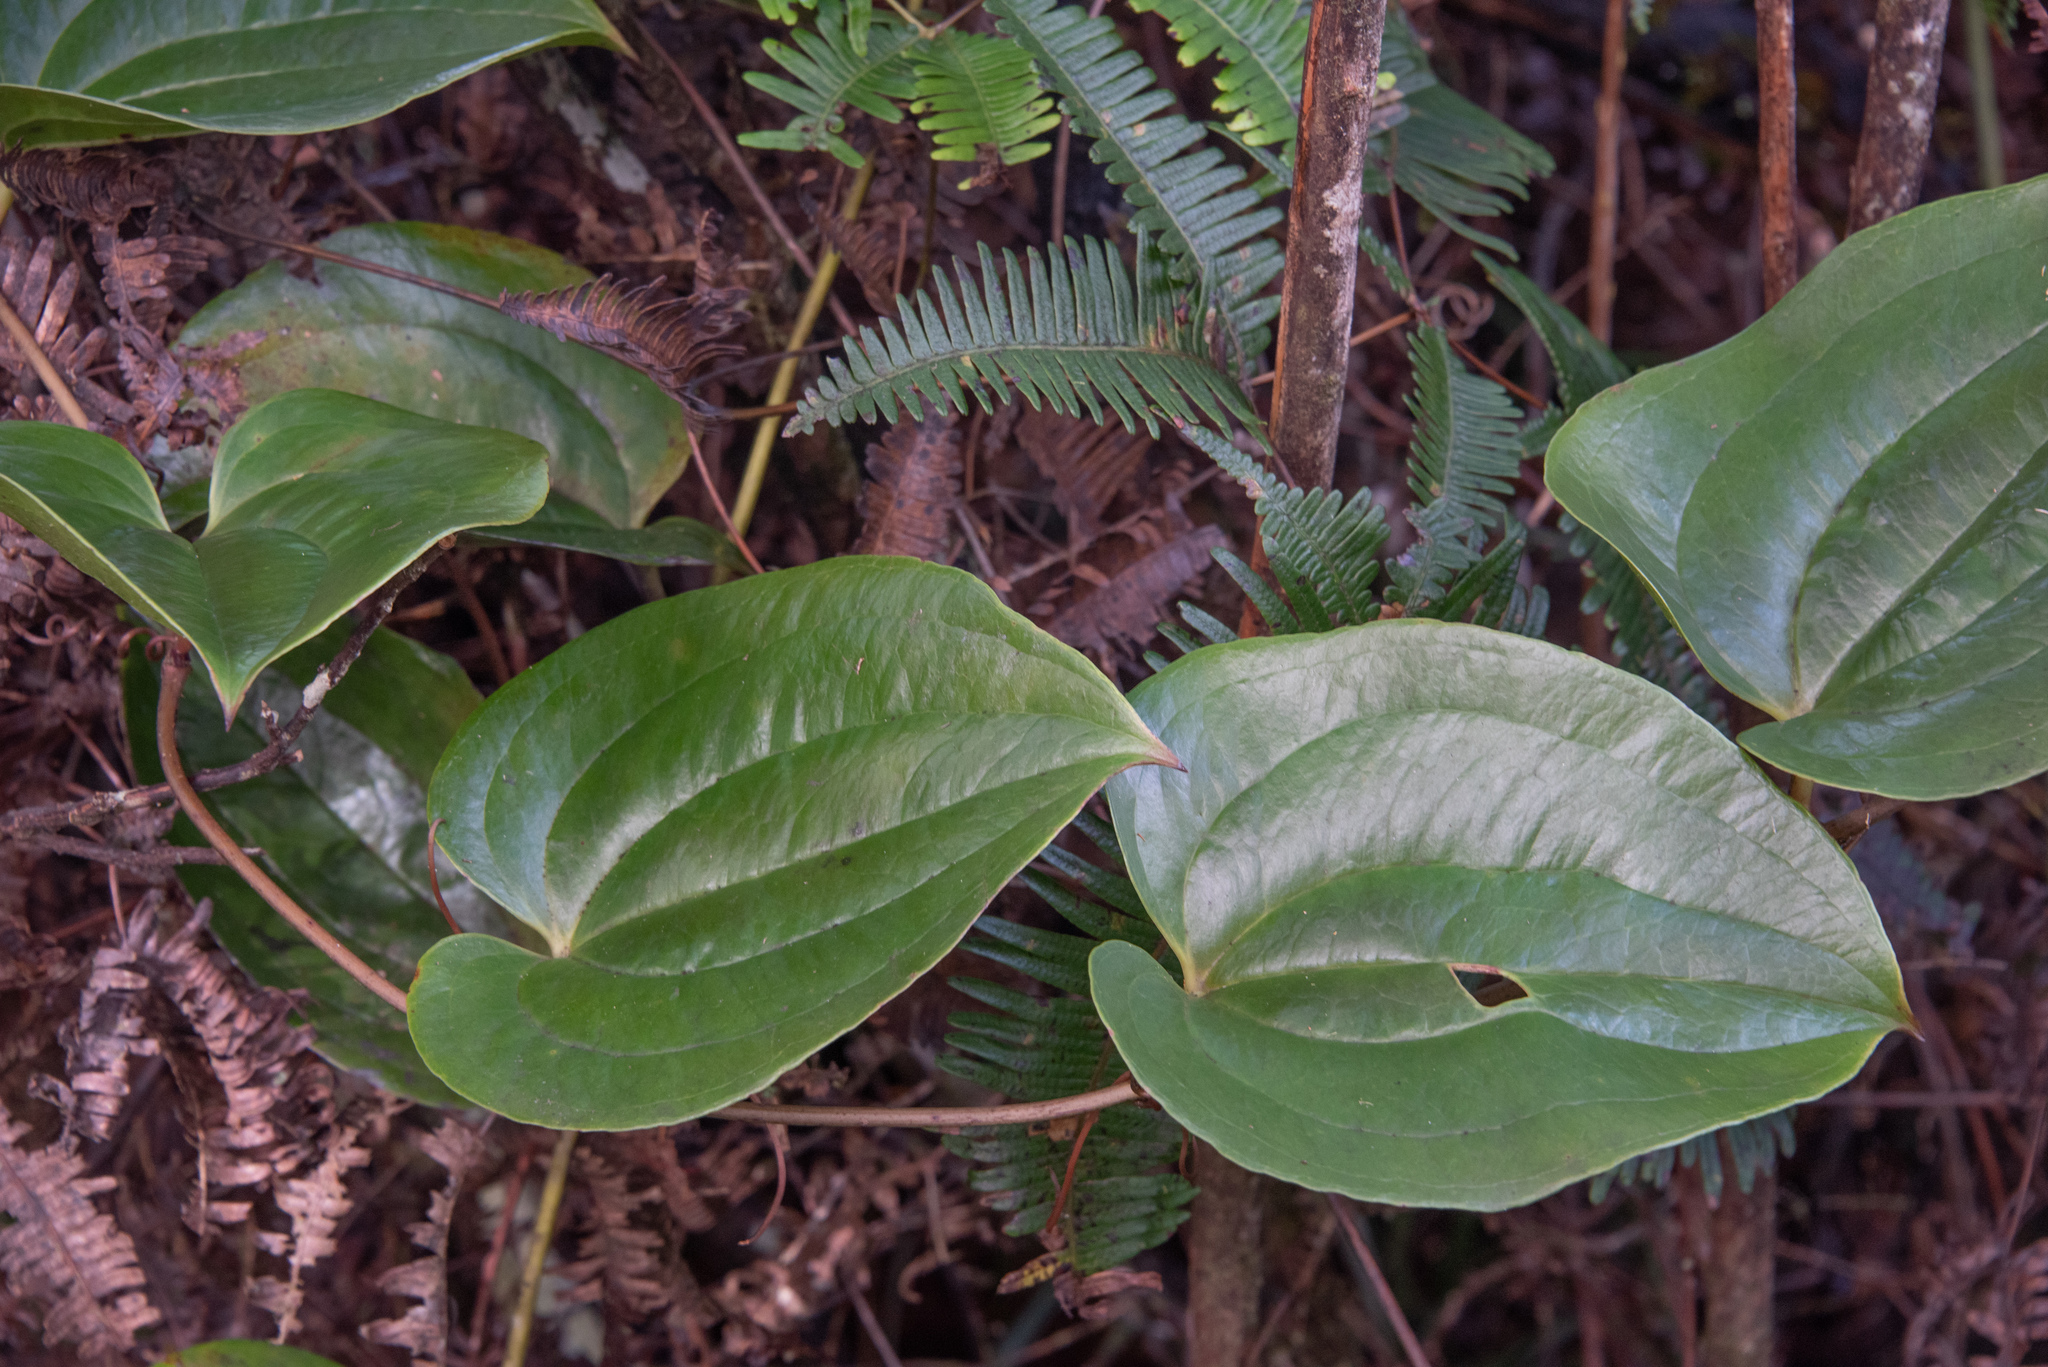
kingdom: Plantae
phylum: Tracheophyta
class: Liliopsida
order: Liliales
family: Smilacaceae
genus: Smilax
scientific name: Smilax melastomifolia
